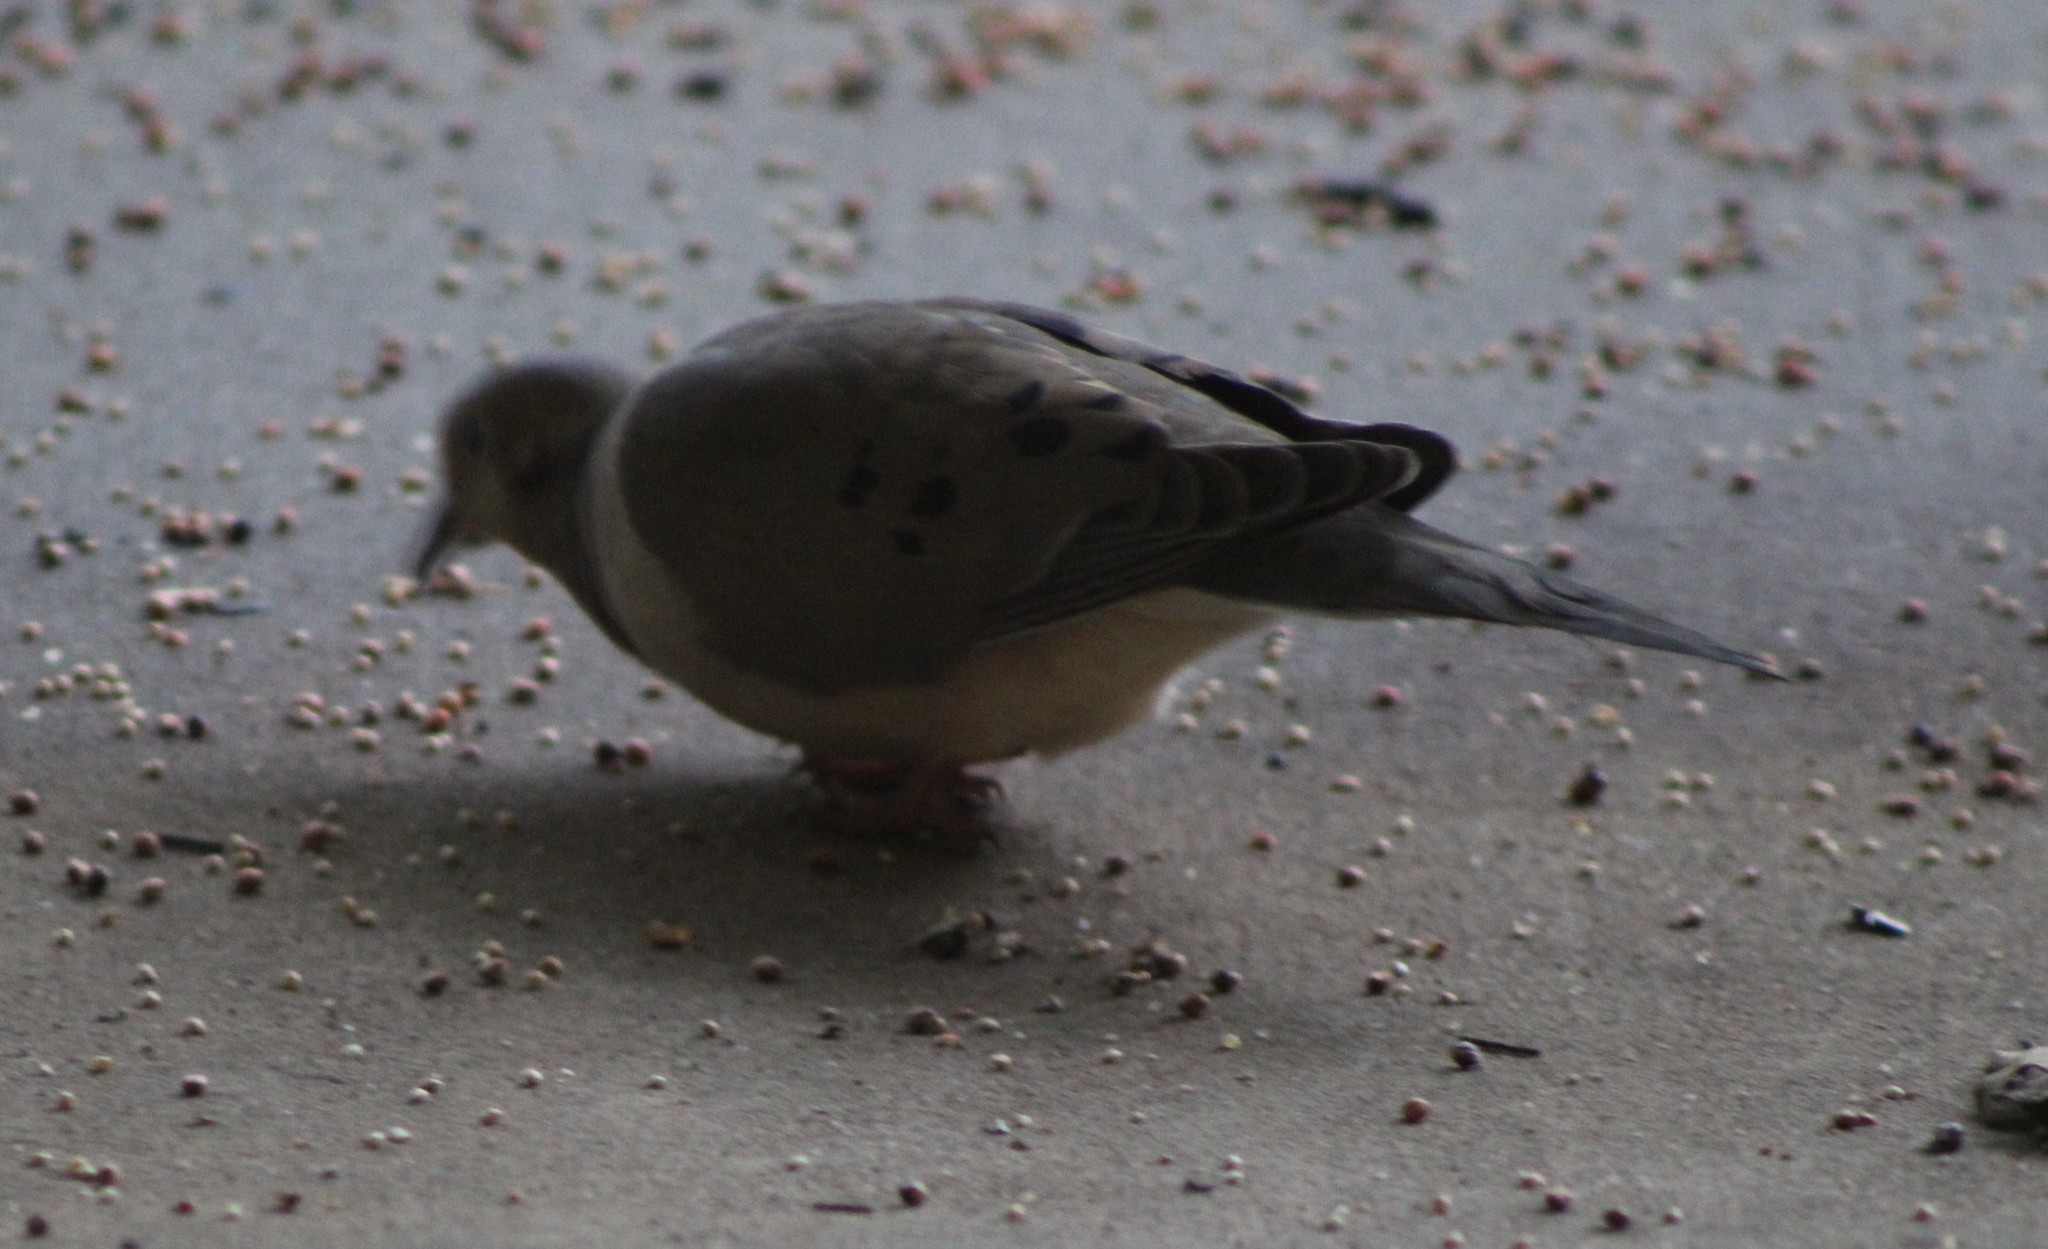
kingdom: Animalia
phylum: Chordata
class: Aves
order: Columbiformes
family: Columbidae
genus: Zenaida
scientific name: Zenaida macroura
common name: Mourning dove
